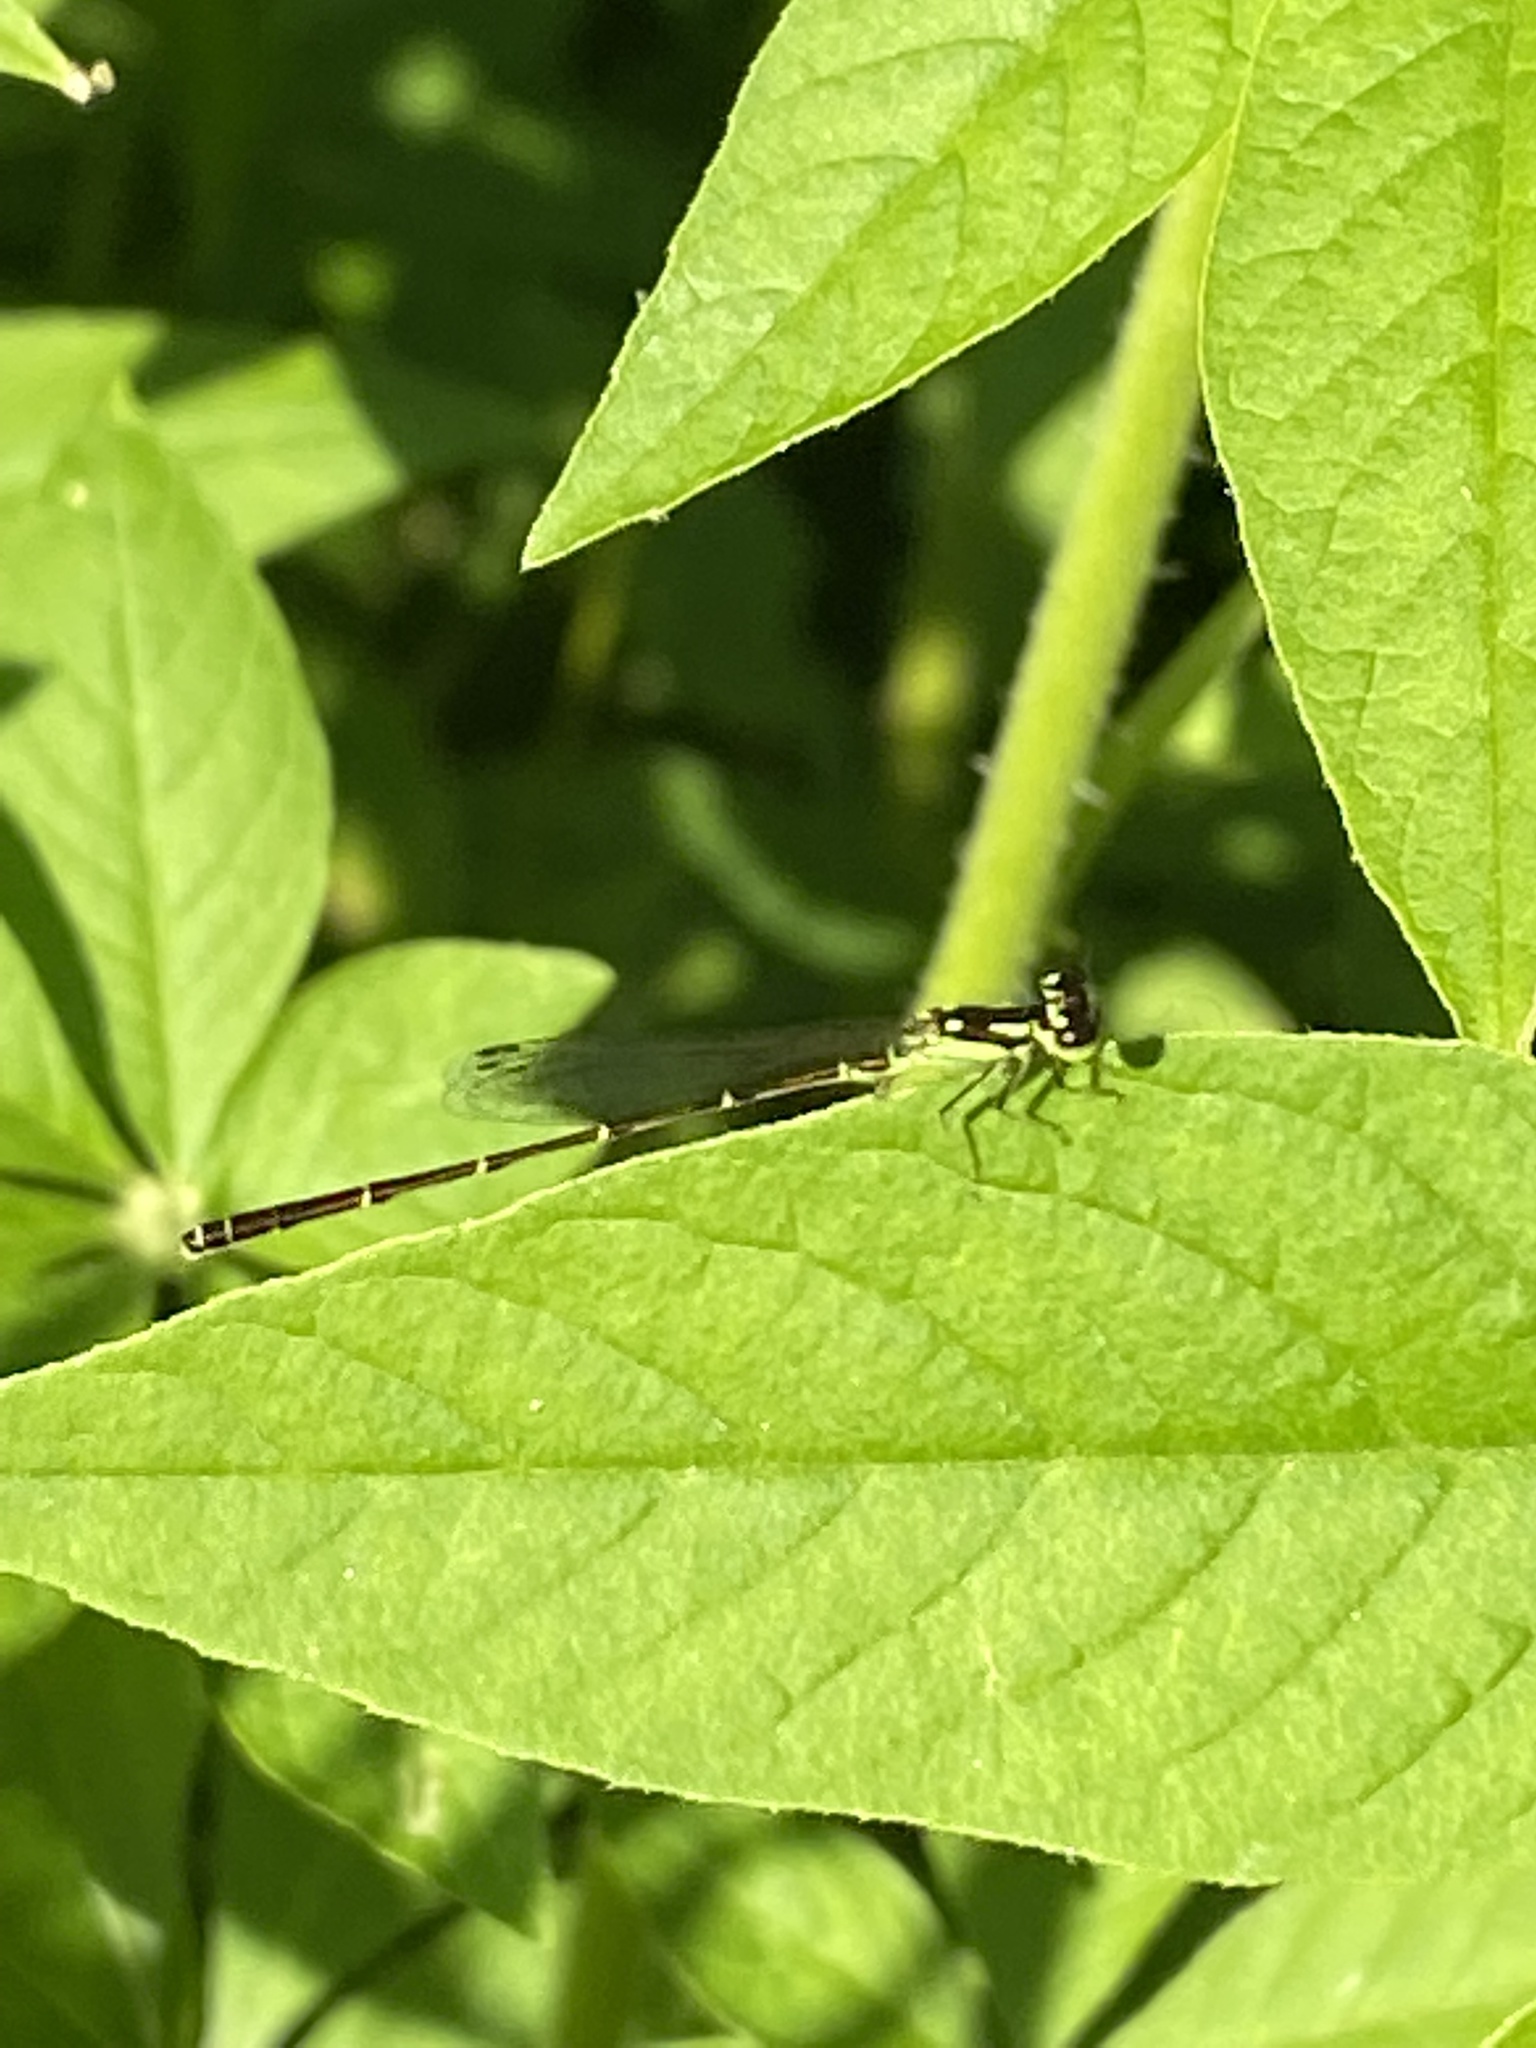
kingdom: Animalia
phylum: Arthropoda
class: Insecta
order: Odonata
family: Coenagrionidae
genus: Ischnura
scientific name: Ischnura posita
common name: Fragile forktail
